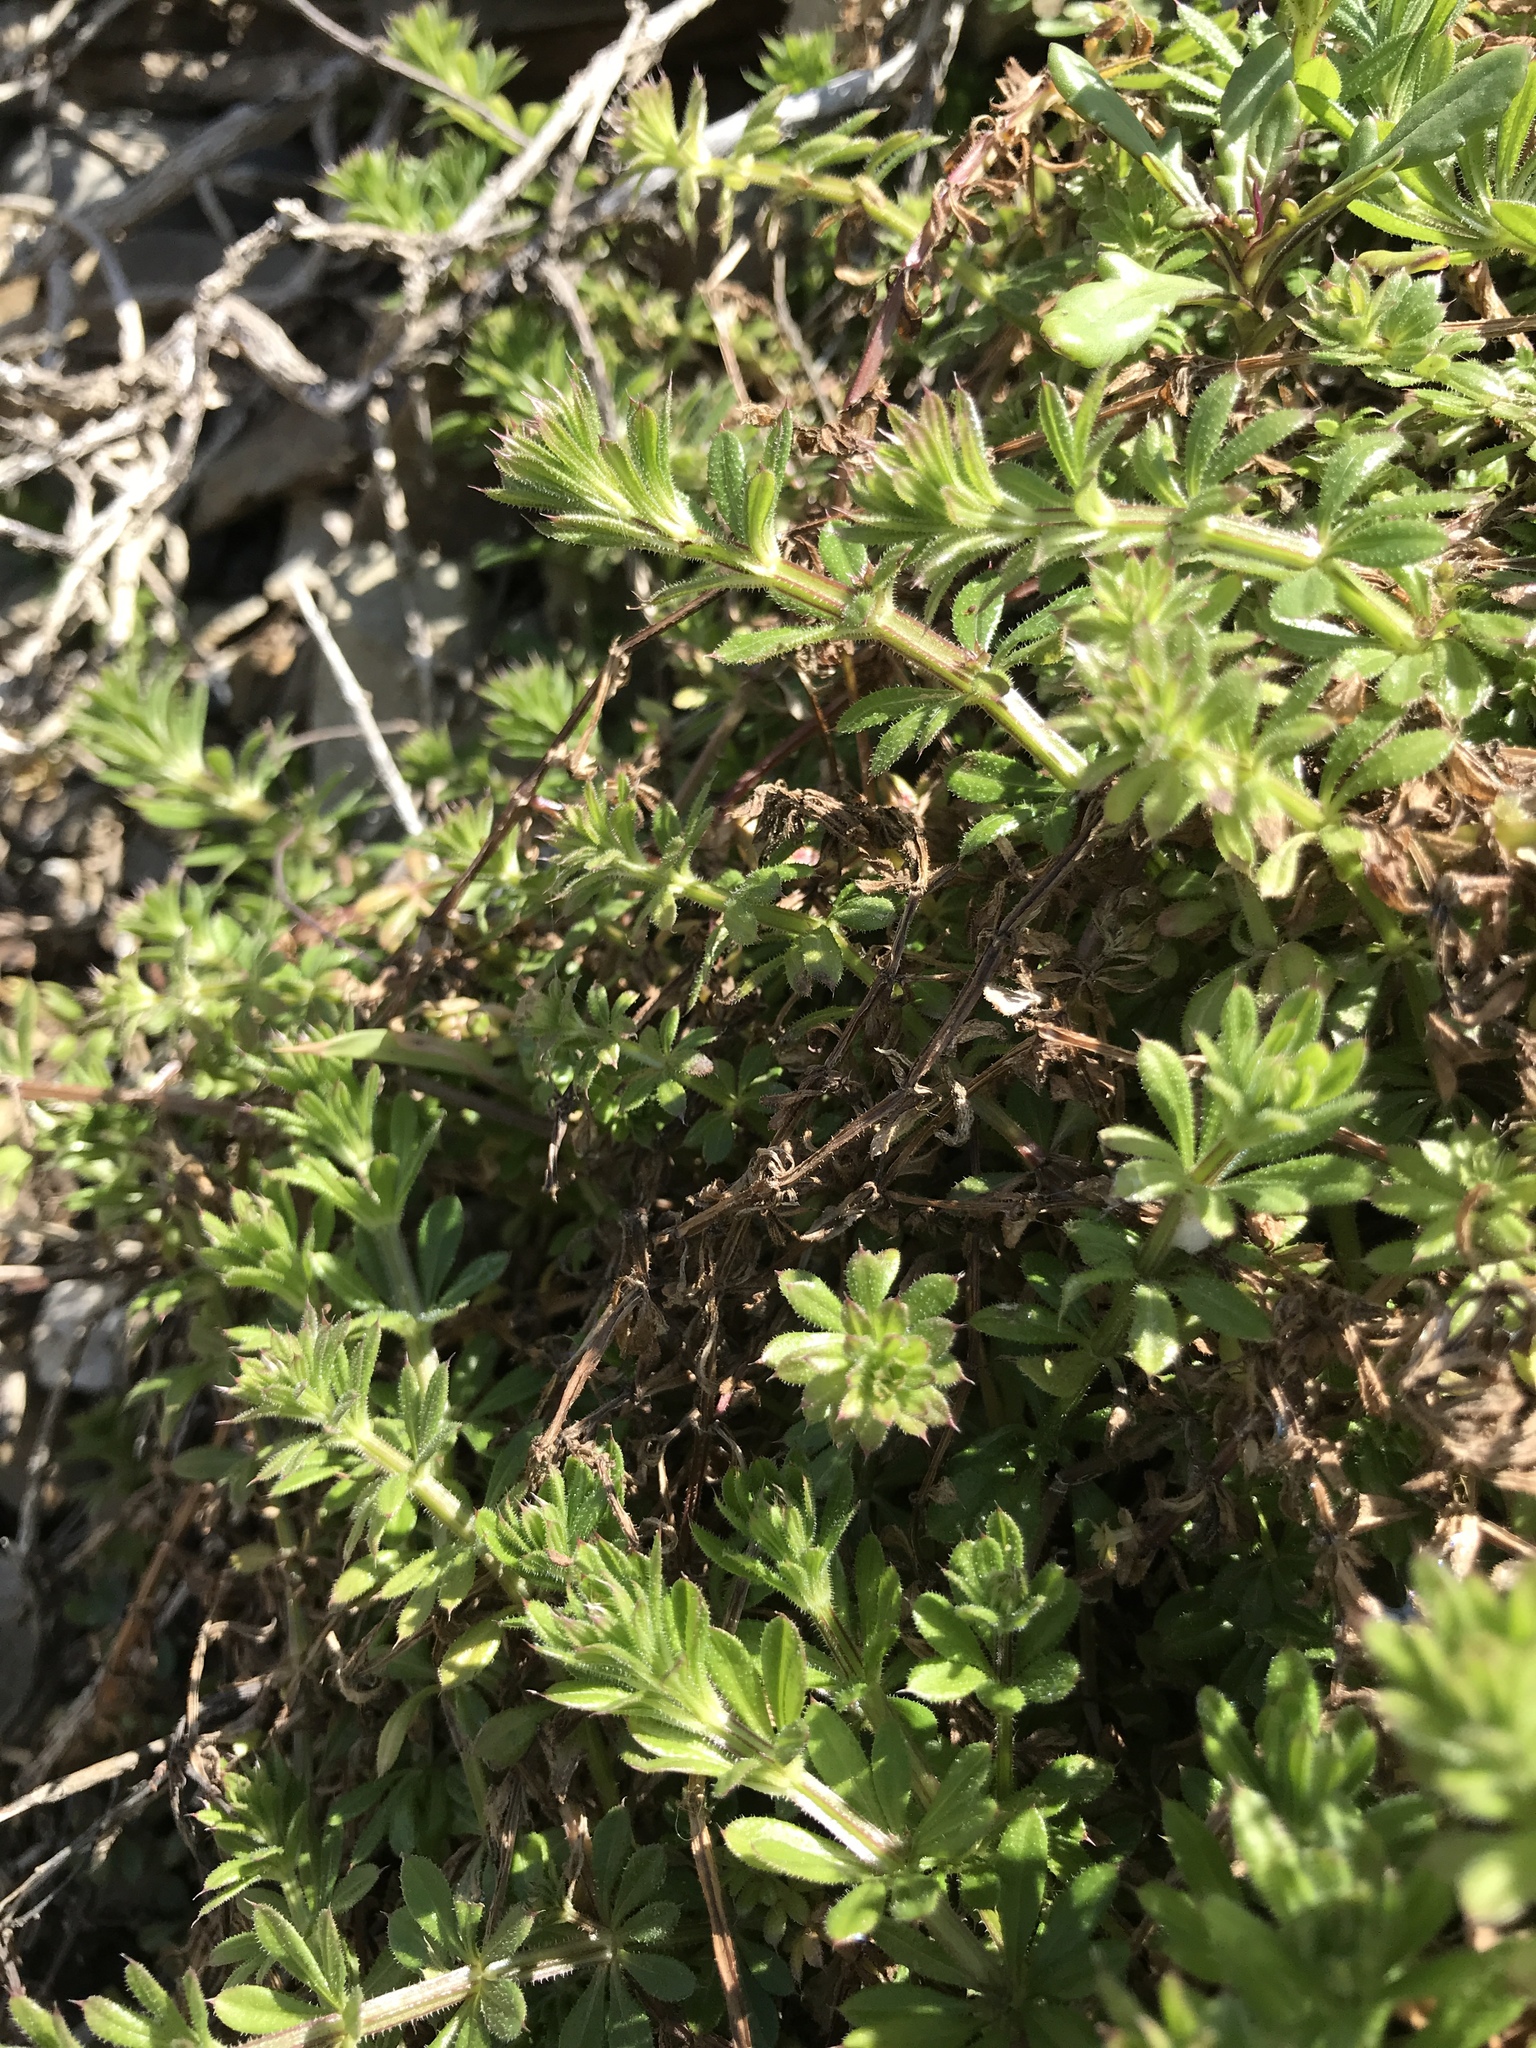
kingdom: Plantae
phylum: Tracheophyta
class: Magnoliopsida
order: Gentianales
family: Rubiaceae
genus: Galium
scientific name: Galium aparine
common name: Cleavers
